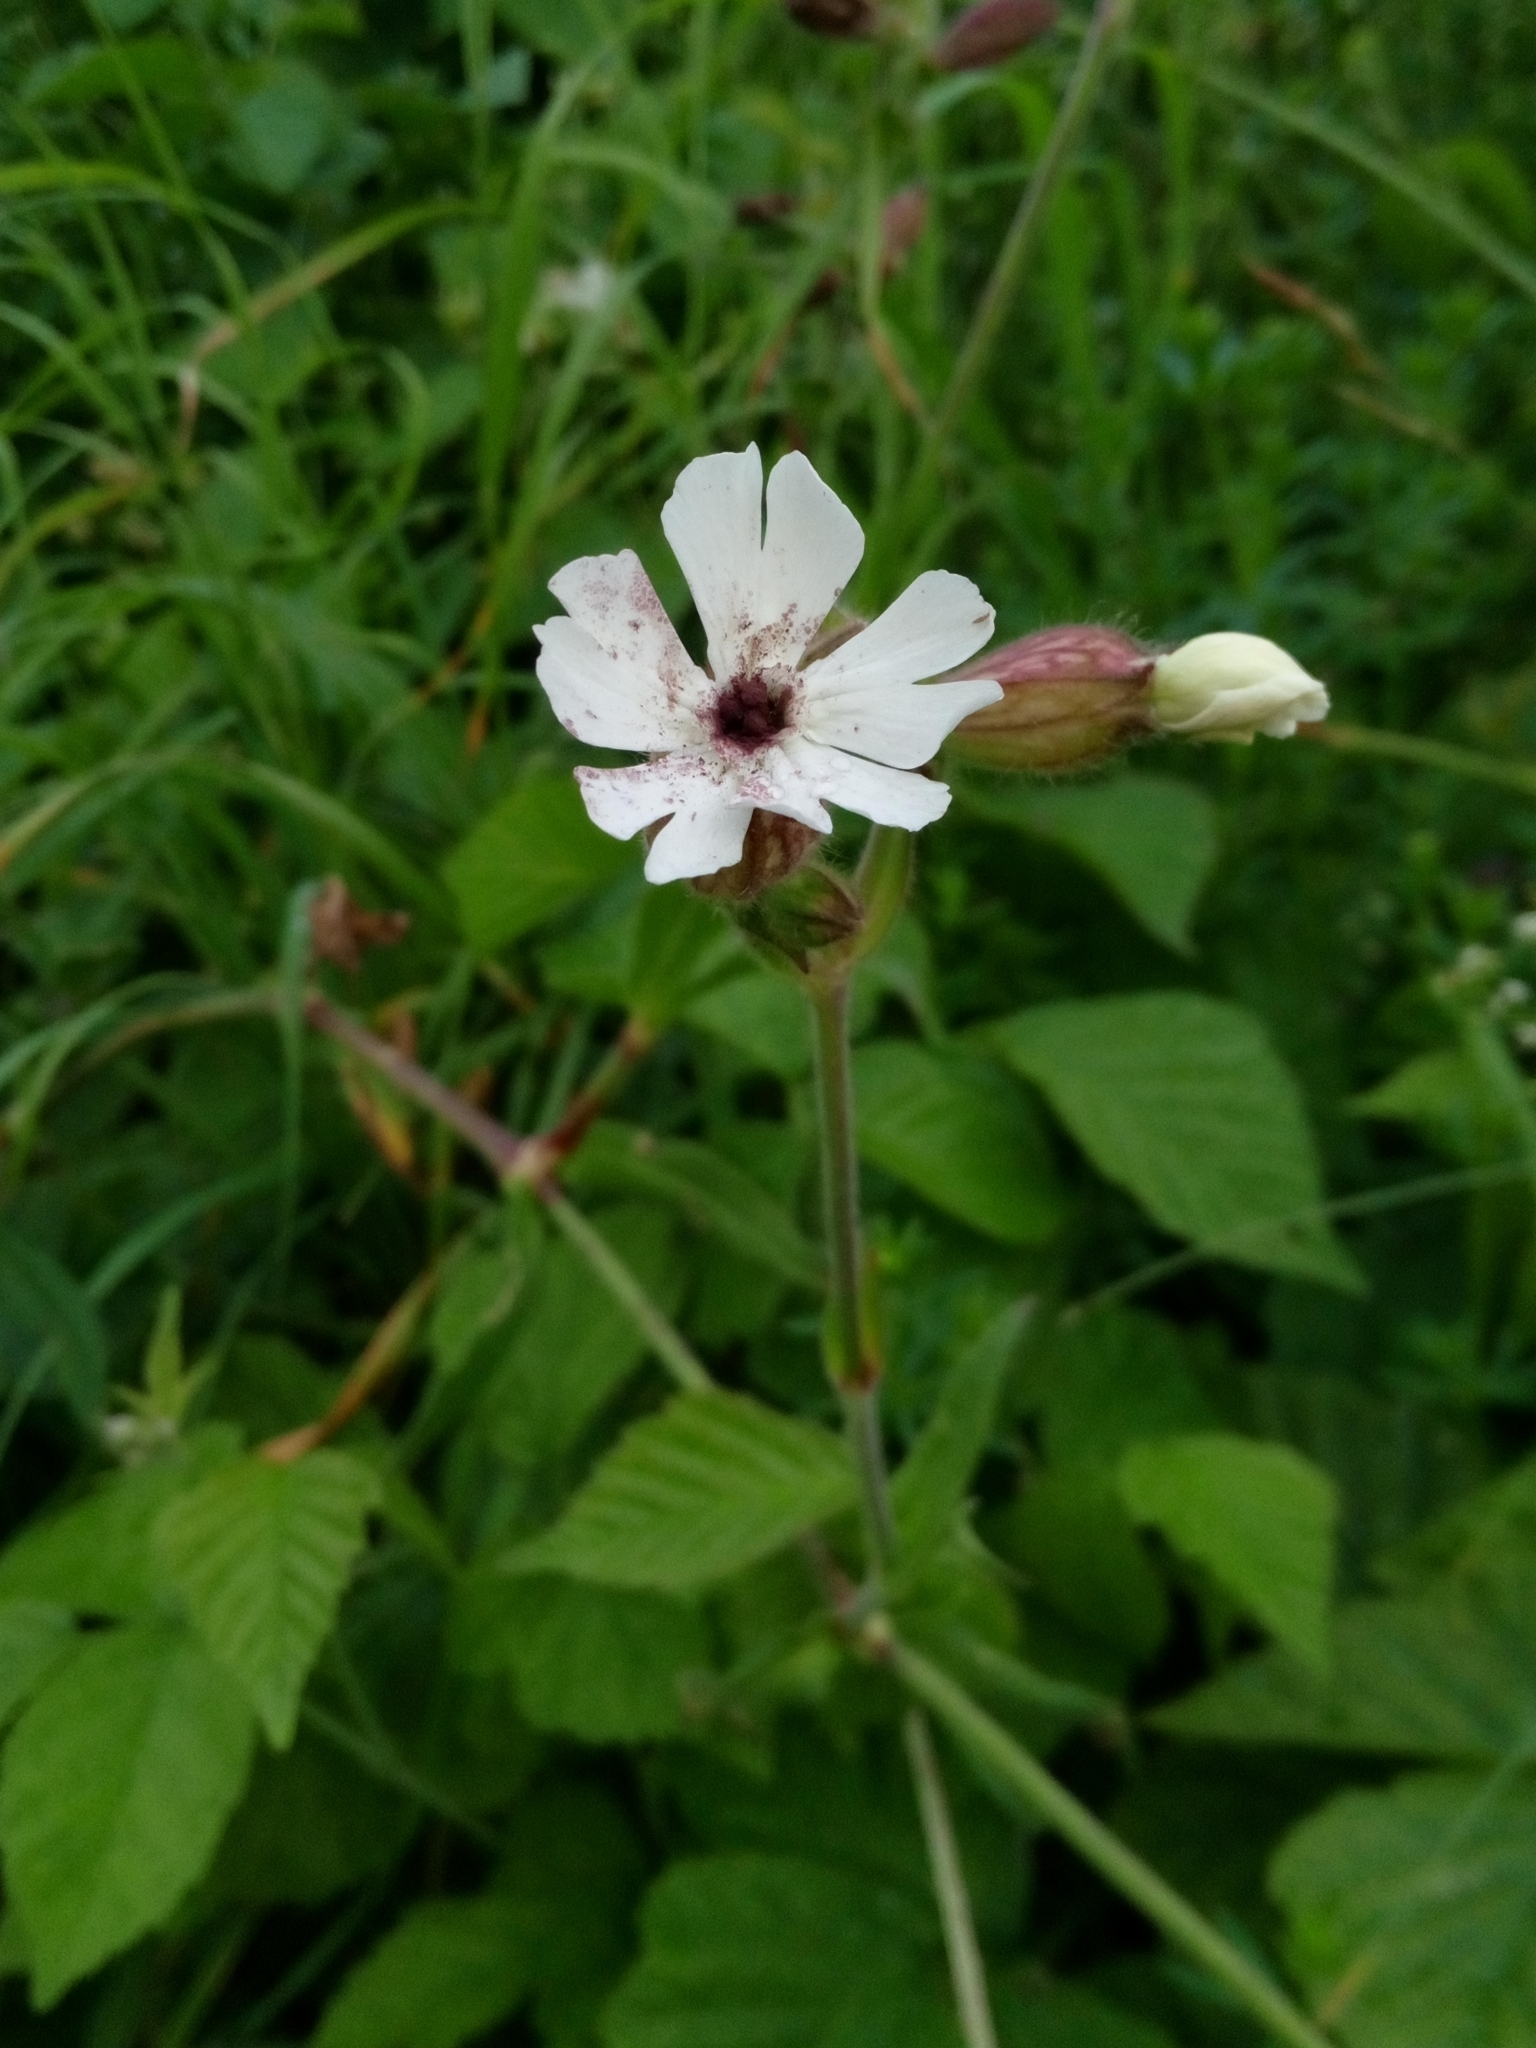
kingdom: Fungi
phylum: Basidiomycota
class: Microbotryomycetes
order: Microbotryales
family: Microbotryaceae
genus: Microbotryum
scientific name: Microbotryum lychnidis-dioicae
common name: Campion anther smut
